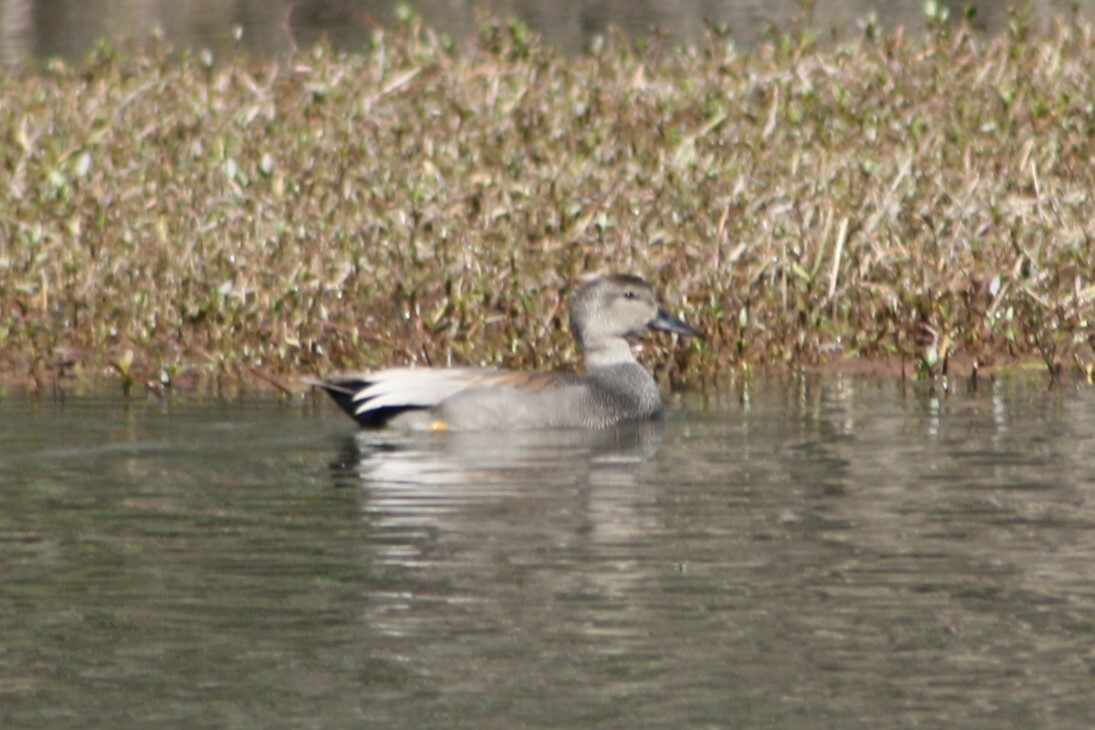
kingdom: Animalia
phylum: Chordata
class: Aves
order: Anseriformes
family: Anatidae
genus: Mareca
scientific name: Mareca strepera
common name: Gadwall
